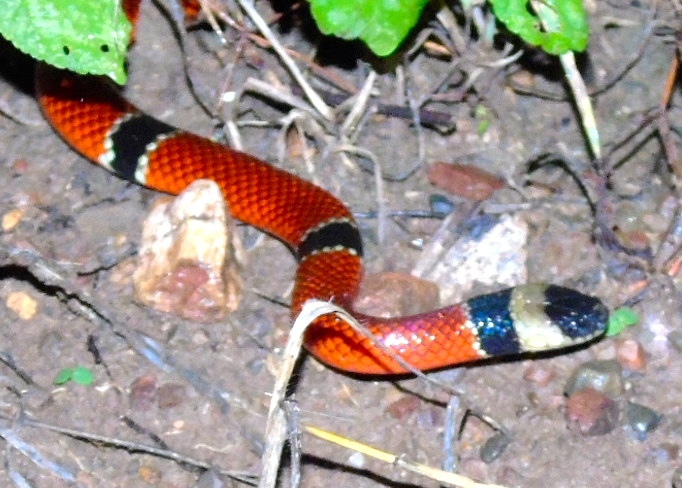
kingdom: Animalia
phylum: Chordata
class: Squamata
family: Elapidae
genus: Micrurus
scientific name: Micrurus distans
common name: Clear-banded coral snake
